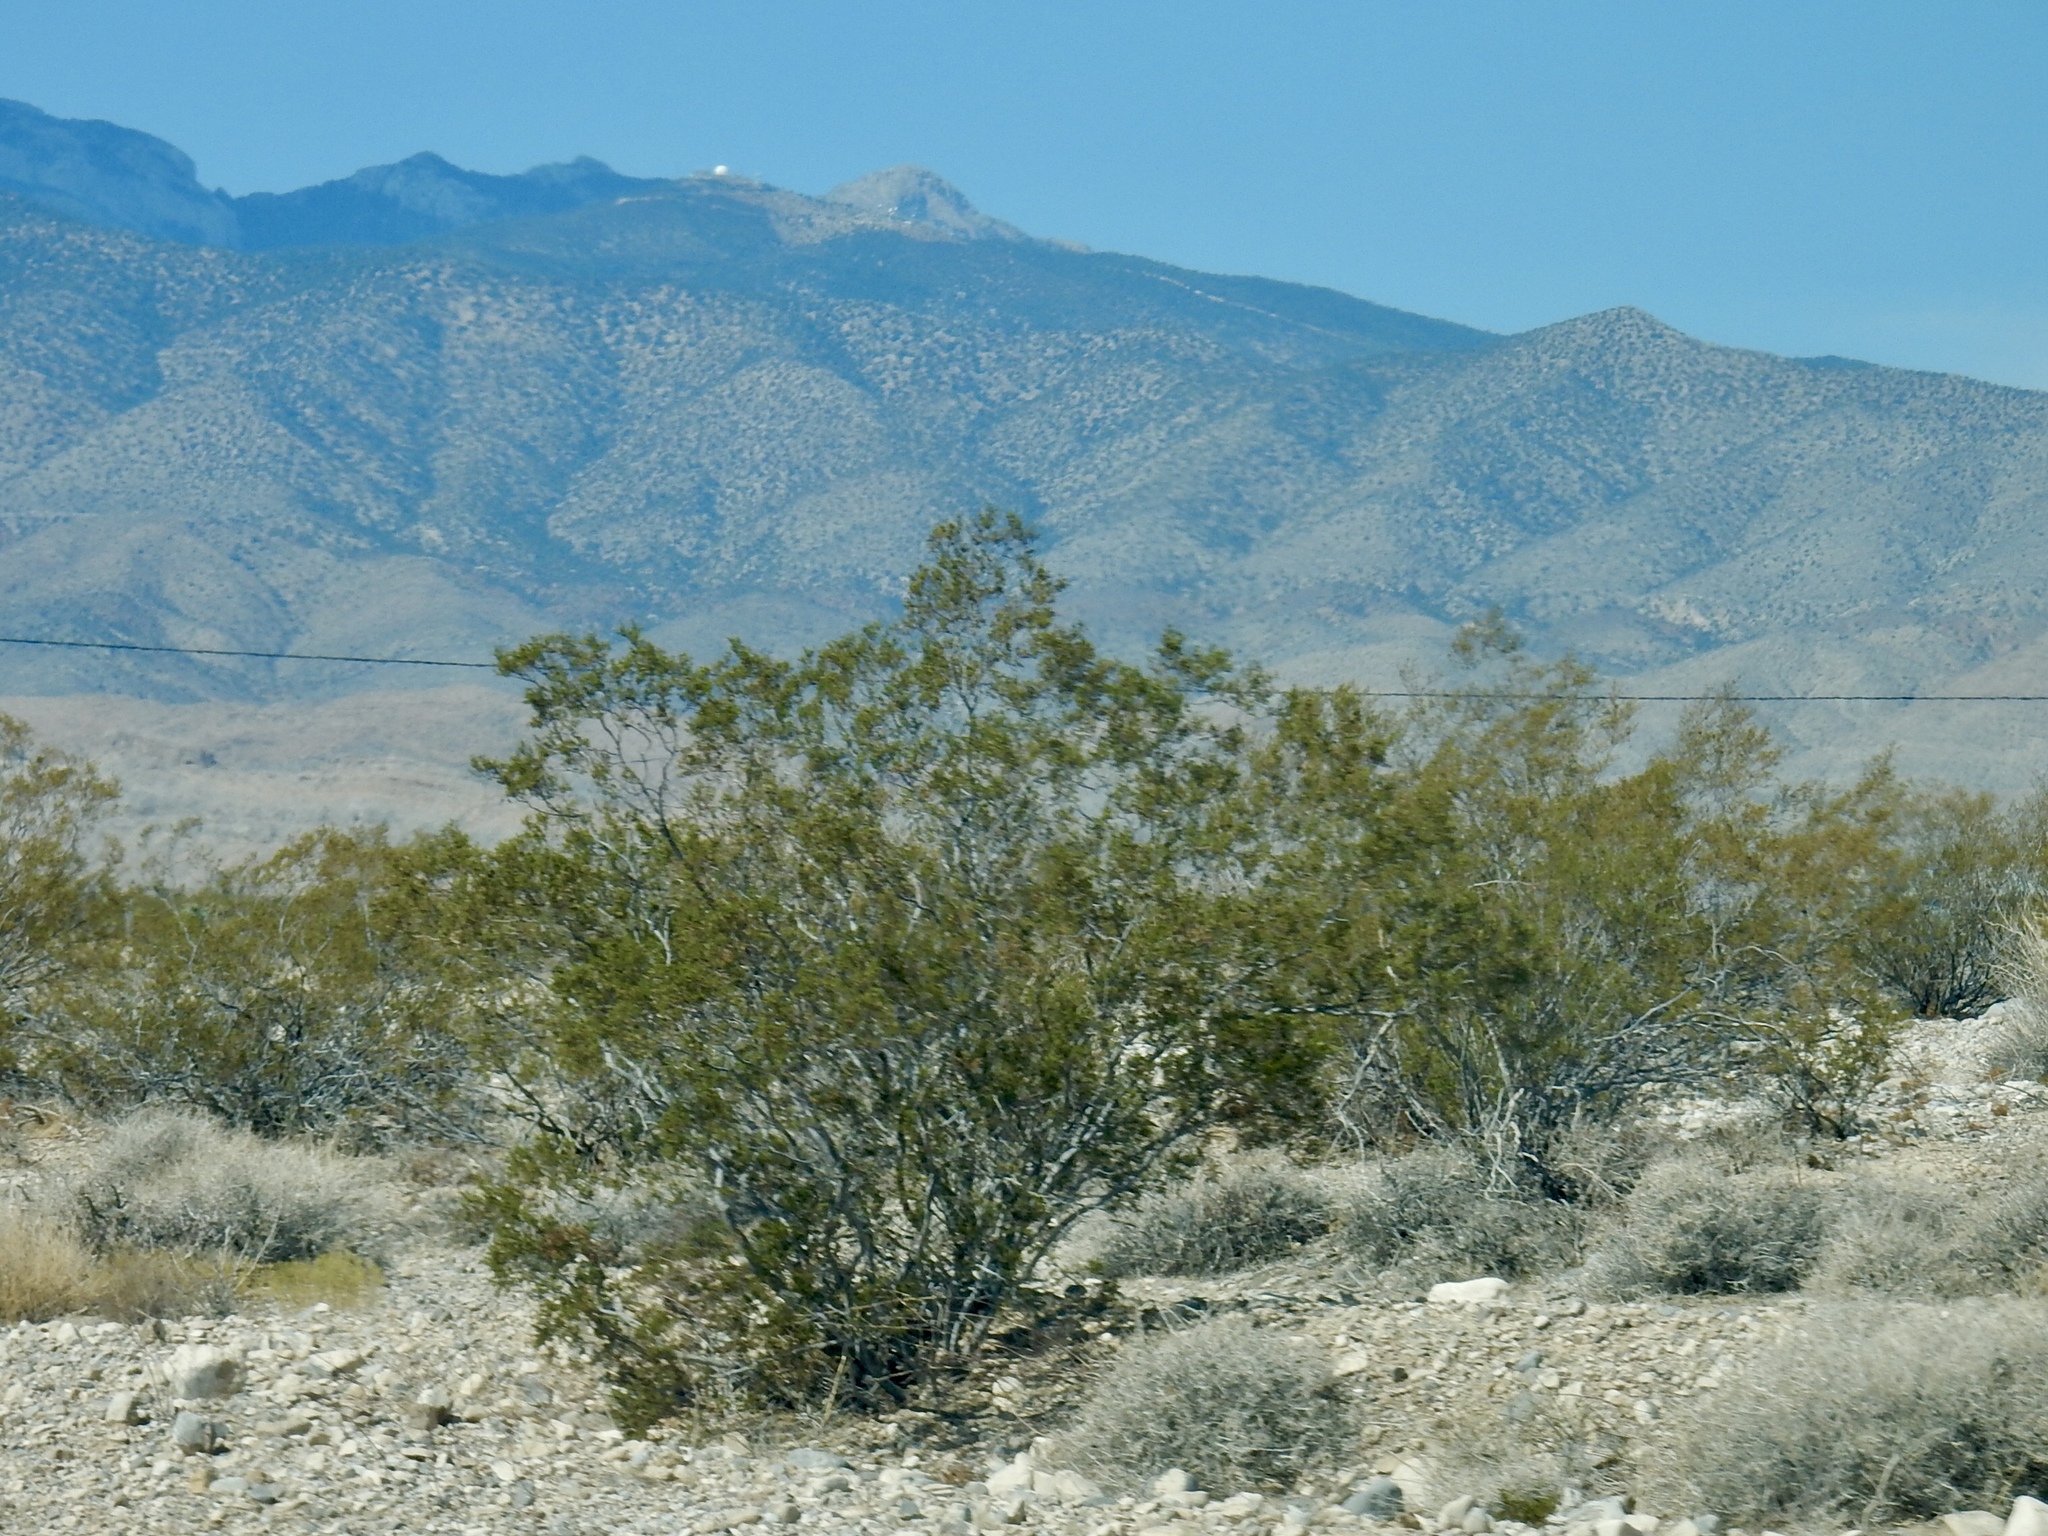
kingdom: Plantae
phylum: Tracheophyta
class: Magnoliopsida
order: Zygophyllales
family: Zygophyllaceae
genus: Larrea
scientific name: Larrea tridentata
